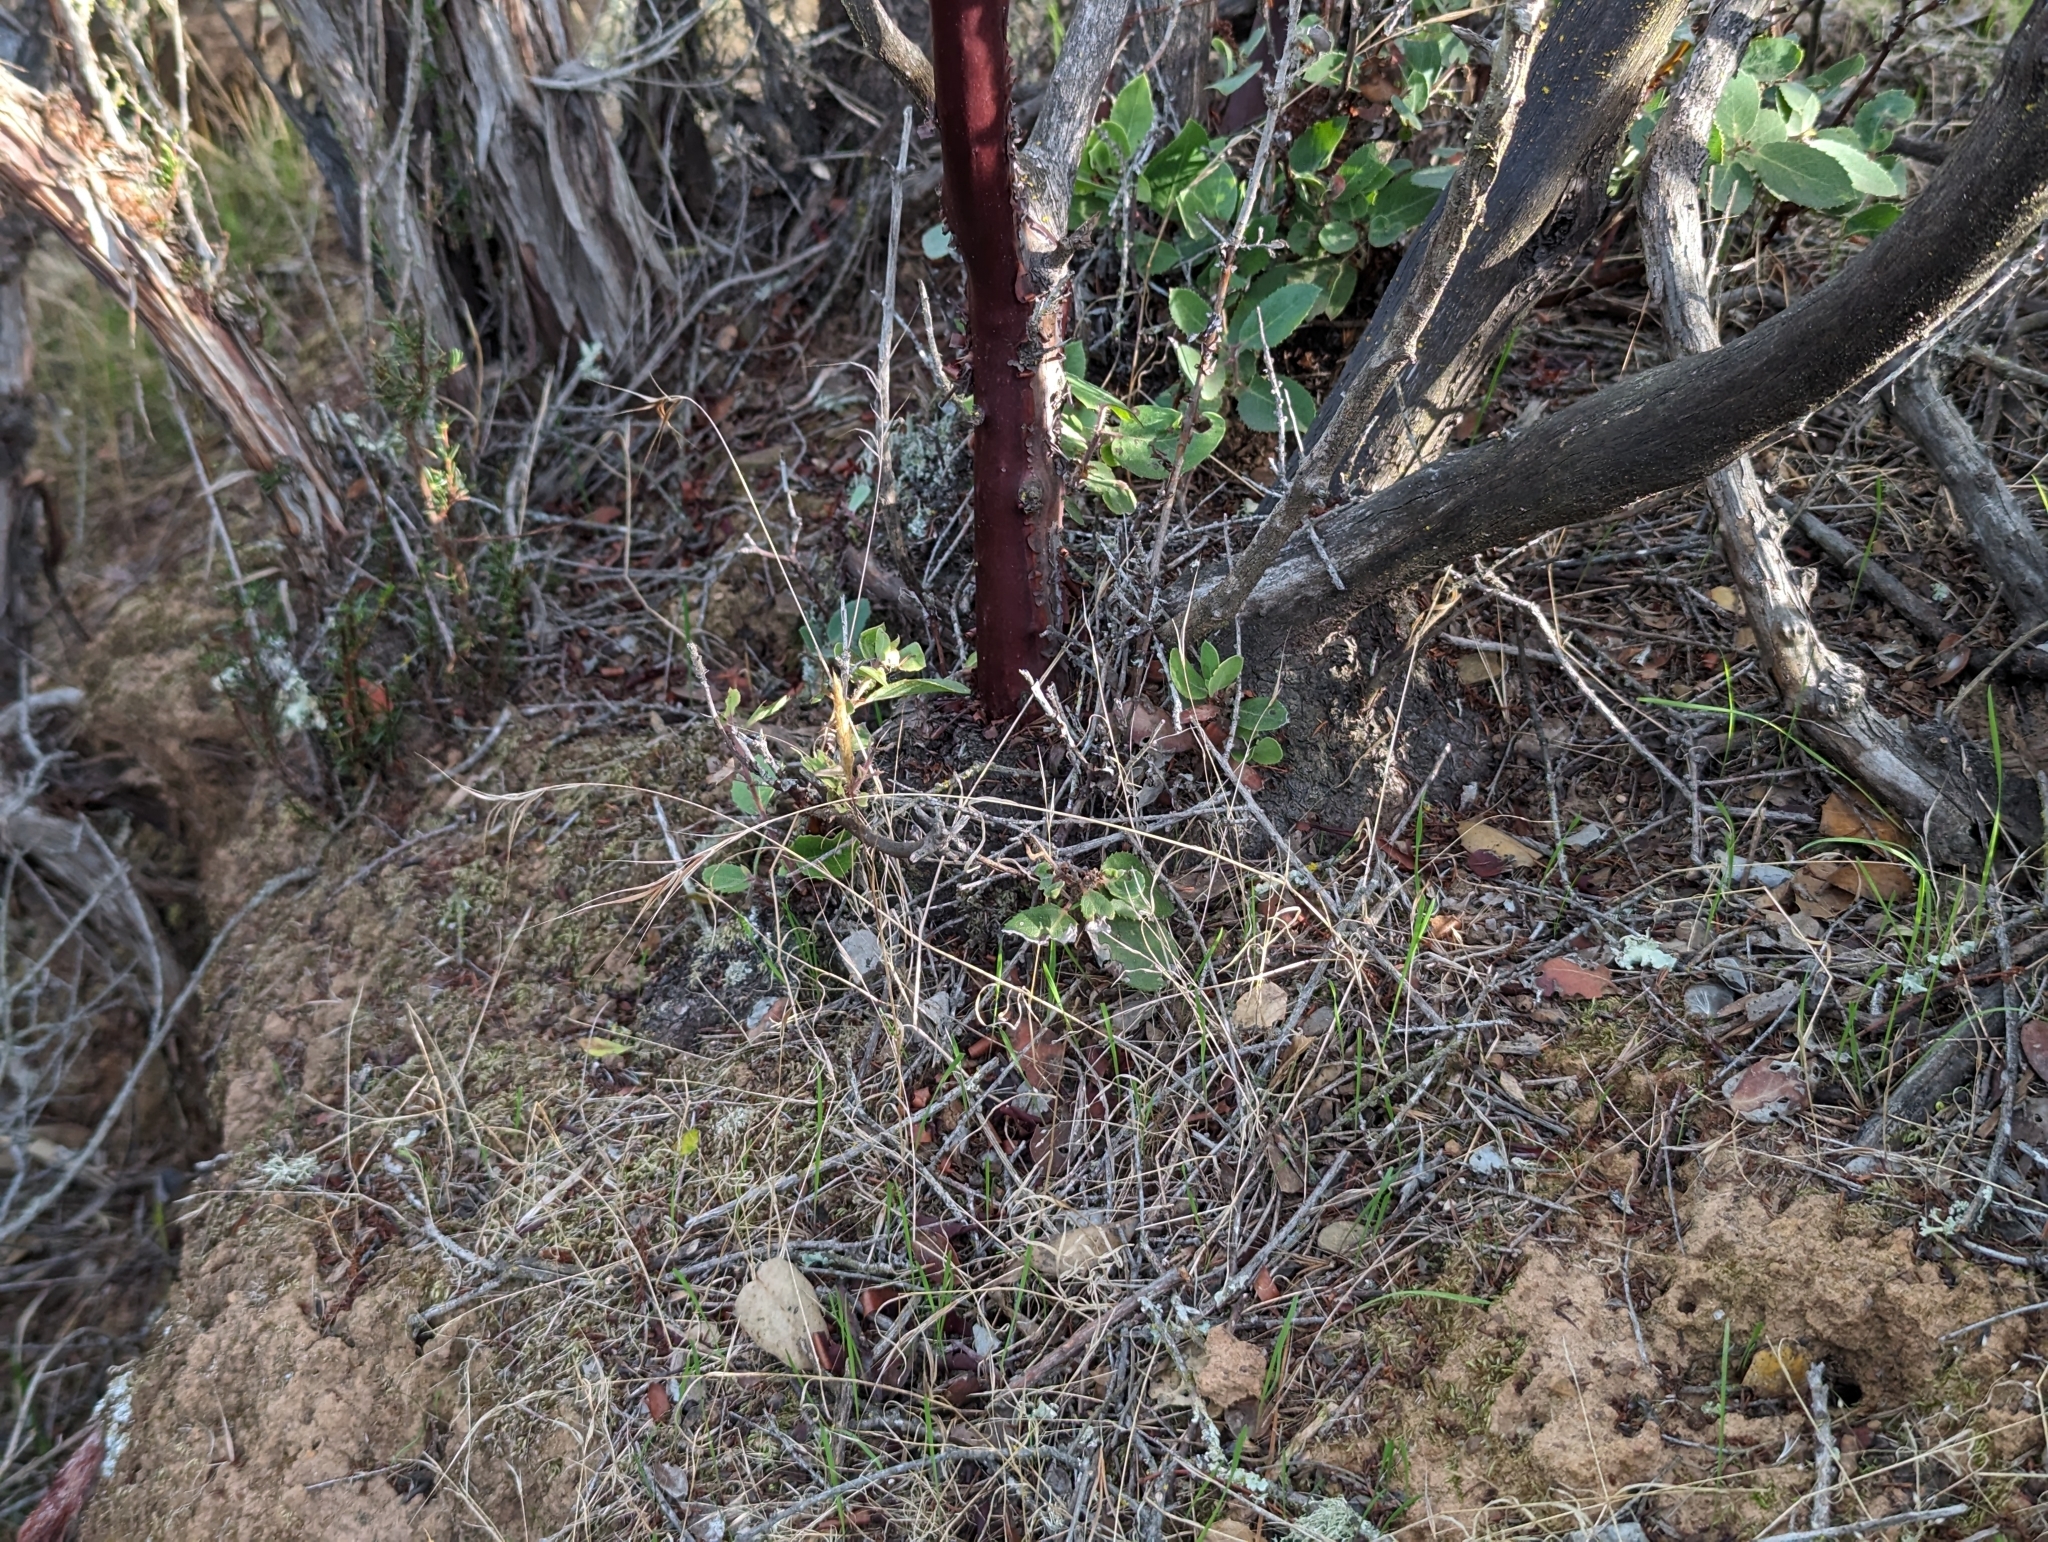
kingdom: Plantae
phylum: Tracheophyta
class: Magnoliopsida
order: Ericales
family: Ericaceae
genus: Arctostaphylos
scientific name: Arctostaphylos crustacea
